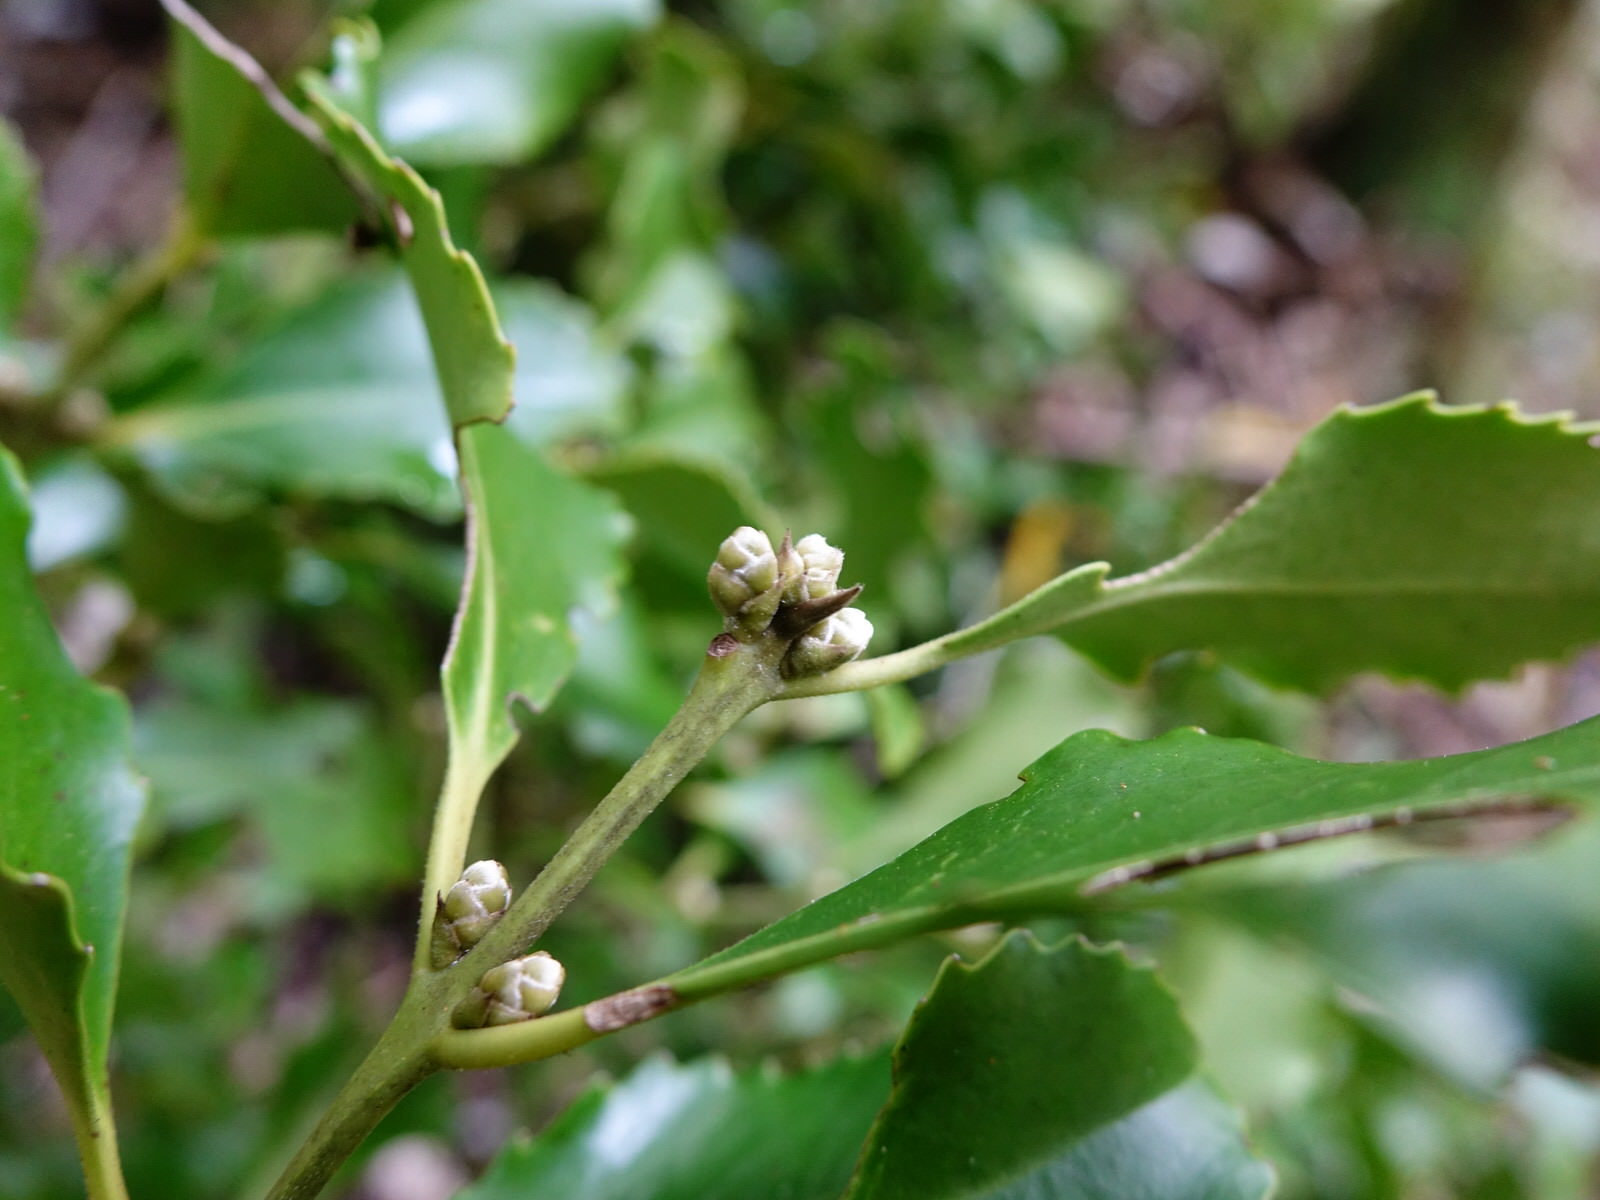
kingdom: Plantae
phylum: Tracheophyta
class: Magnoliopsida
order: Laurales
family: Atherospermataceae
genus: Laurelia
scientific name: Laurelia novae-zelandiae
